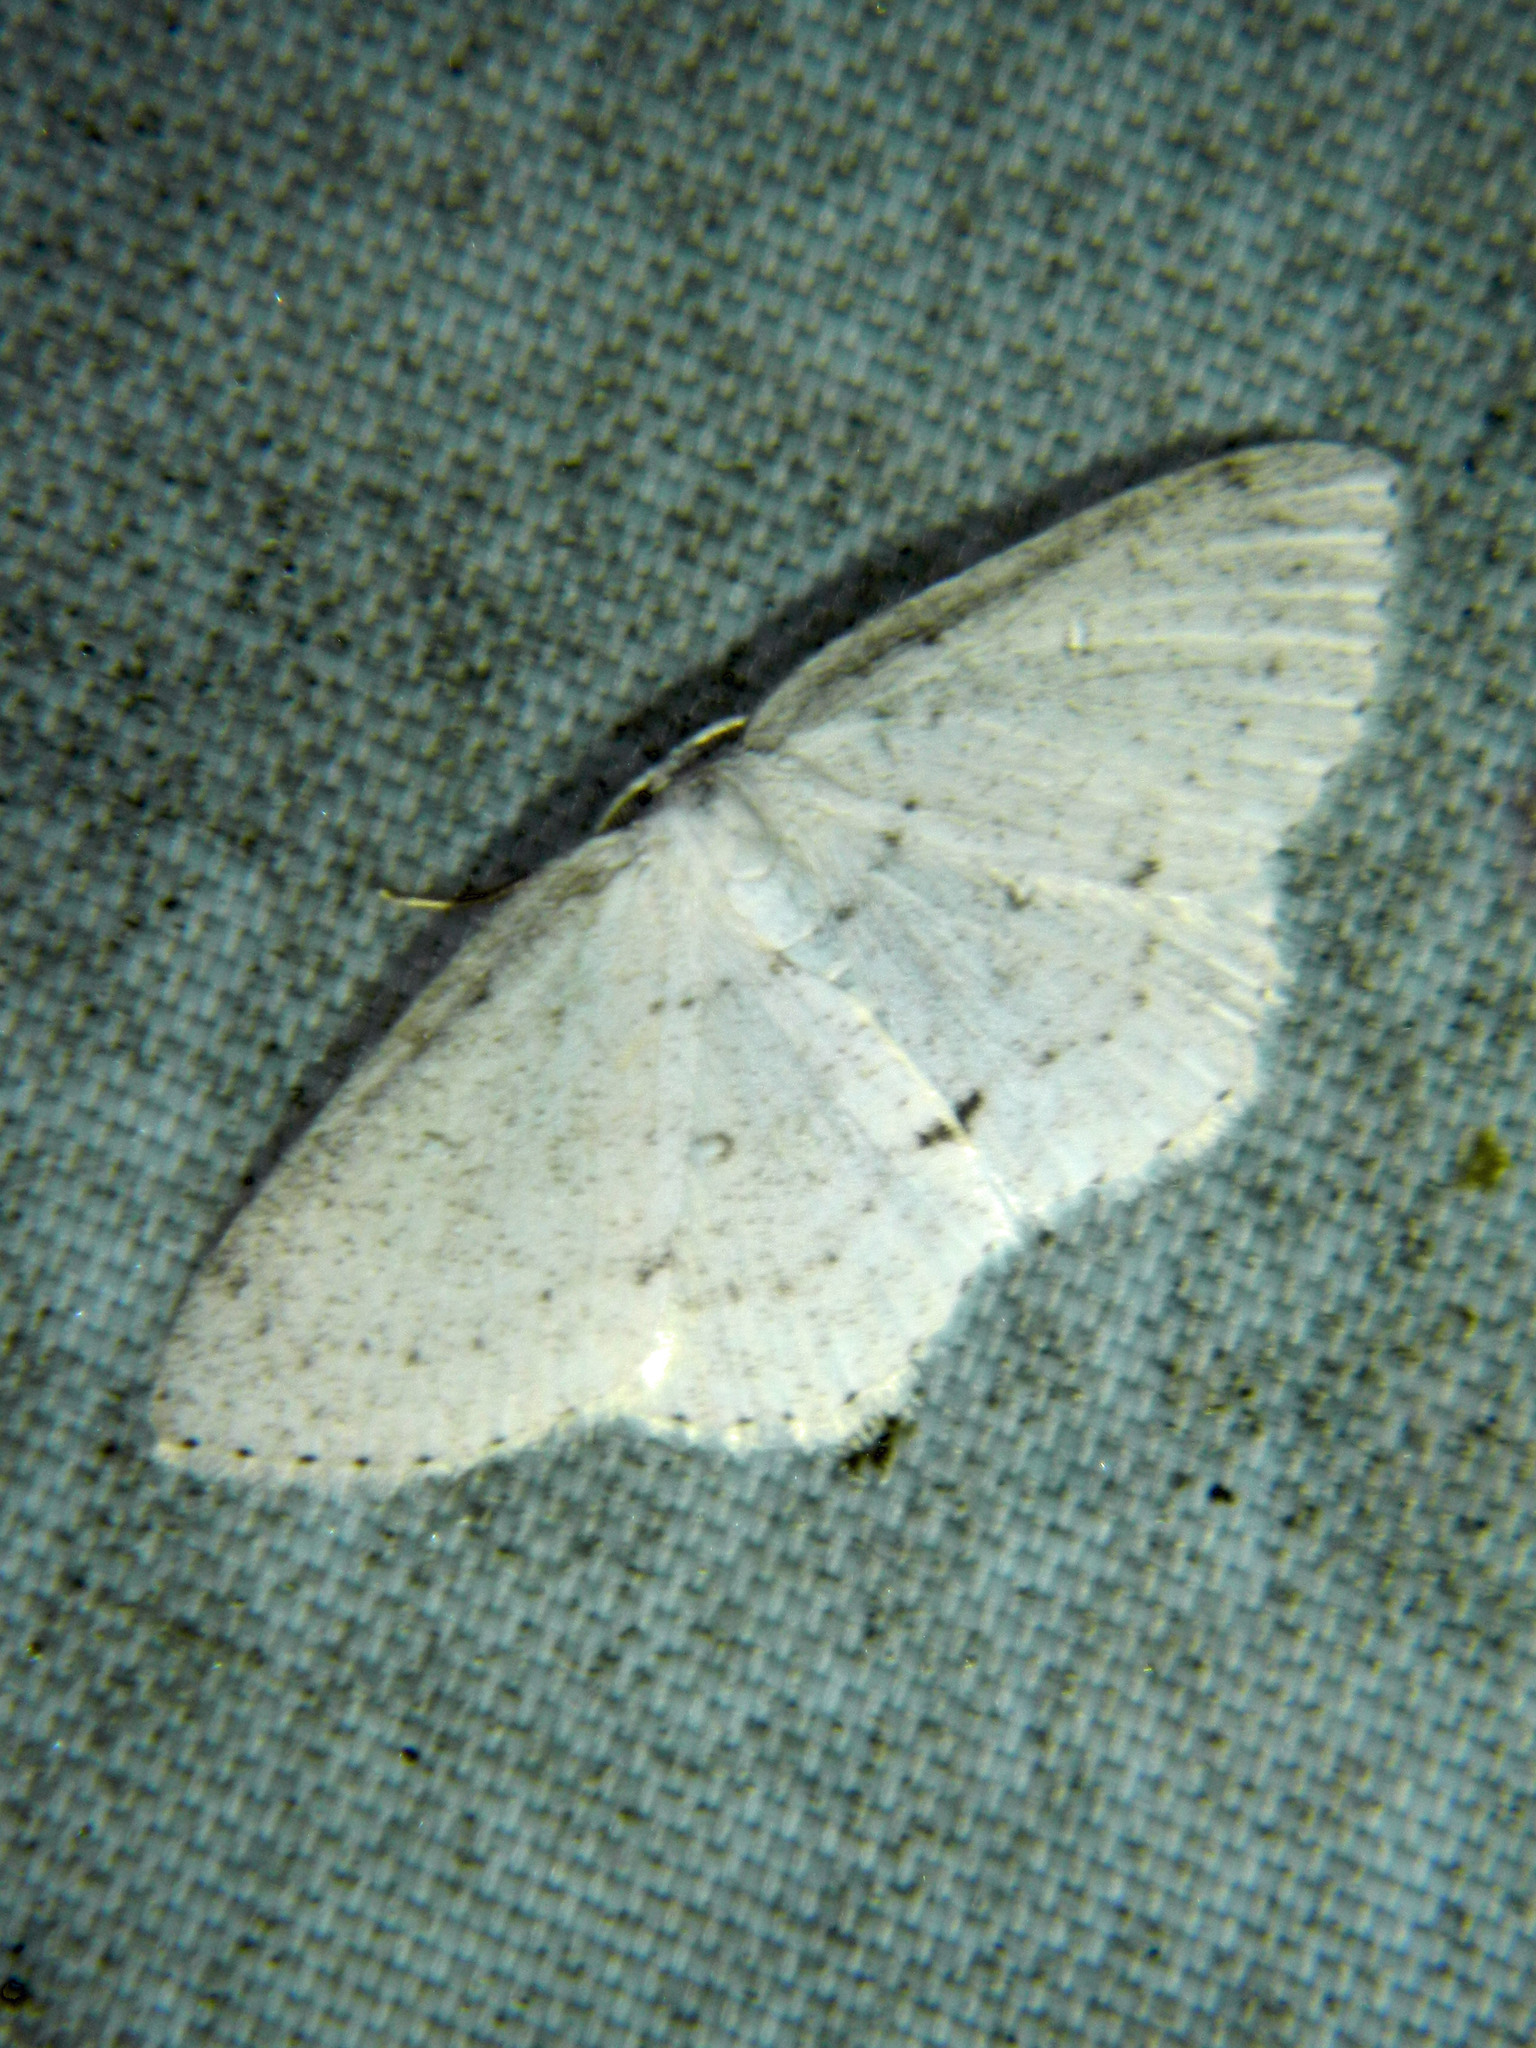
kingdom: Animalia
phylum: Arthropoda
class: Insecta
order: Lepidoptera
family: Geometridae
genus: Cyclophora
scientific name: Cyclophora pendulinaria
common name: Sweet fern geometer
